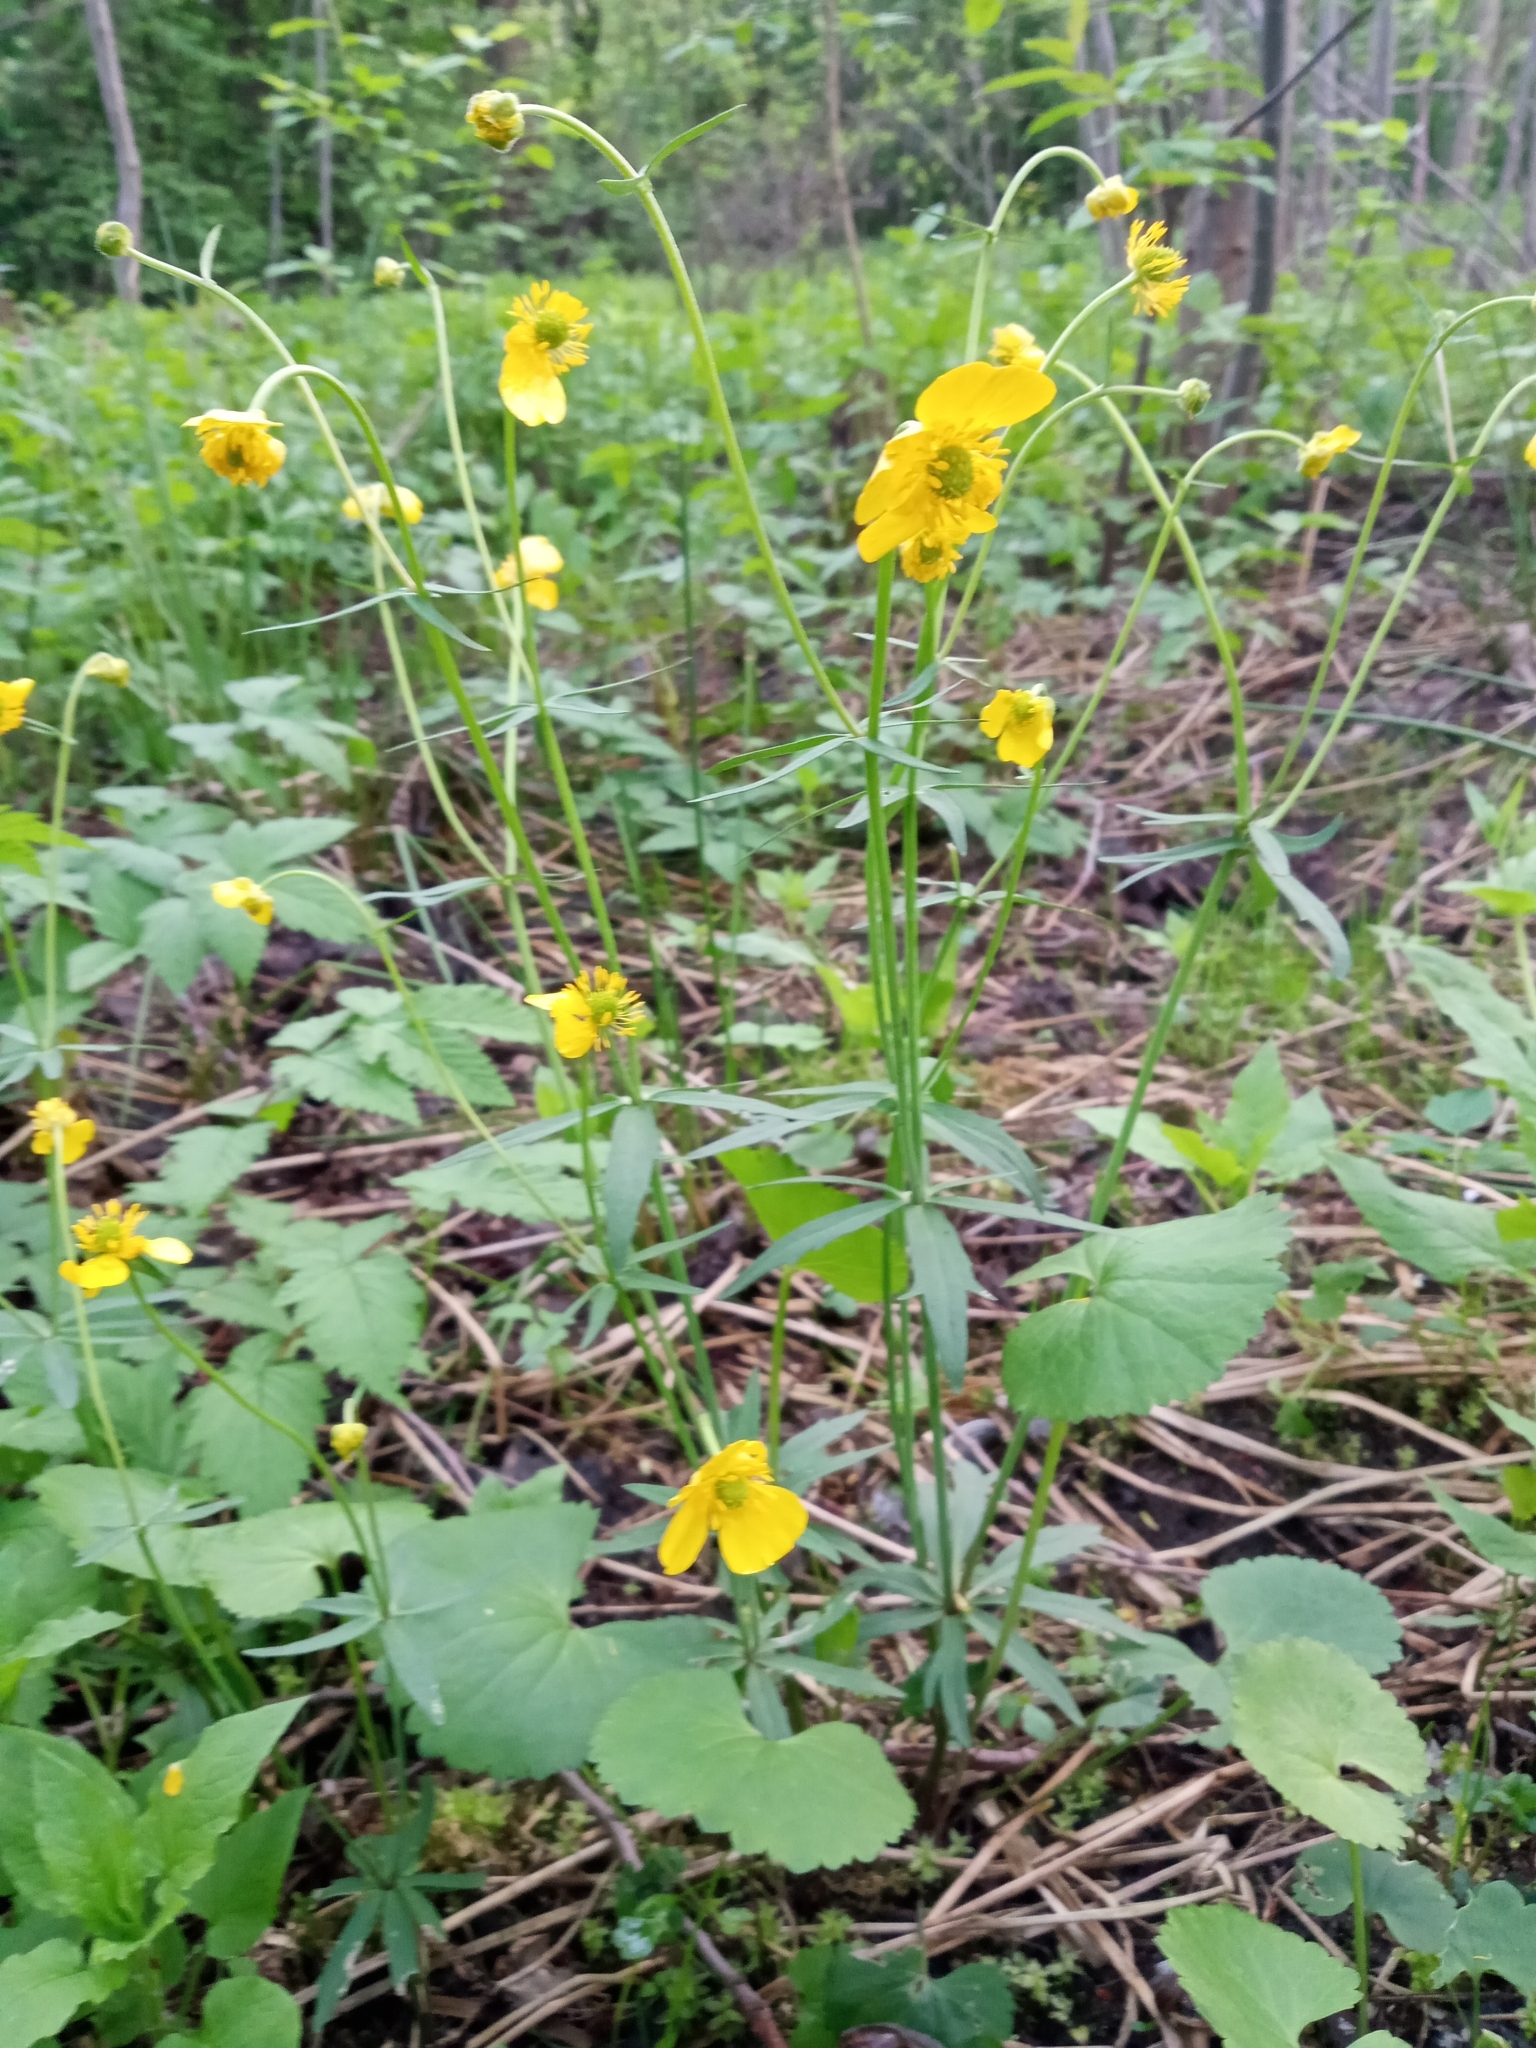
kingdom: Plantae
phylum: Tracheophyta
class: Magnoliopsida
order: Ranunculales
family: Ranunculaceae
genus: Ranunculus
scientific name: Ranunculus cassubicus
